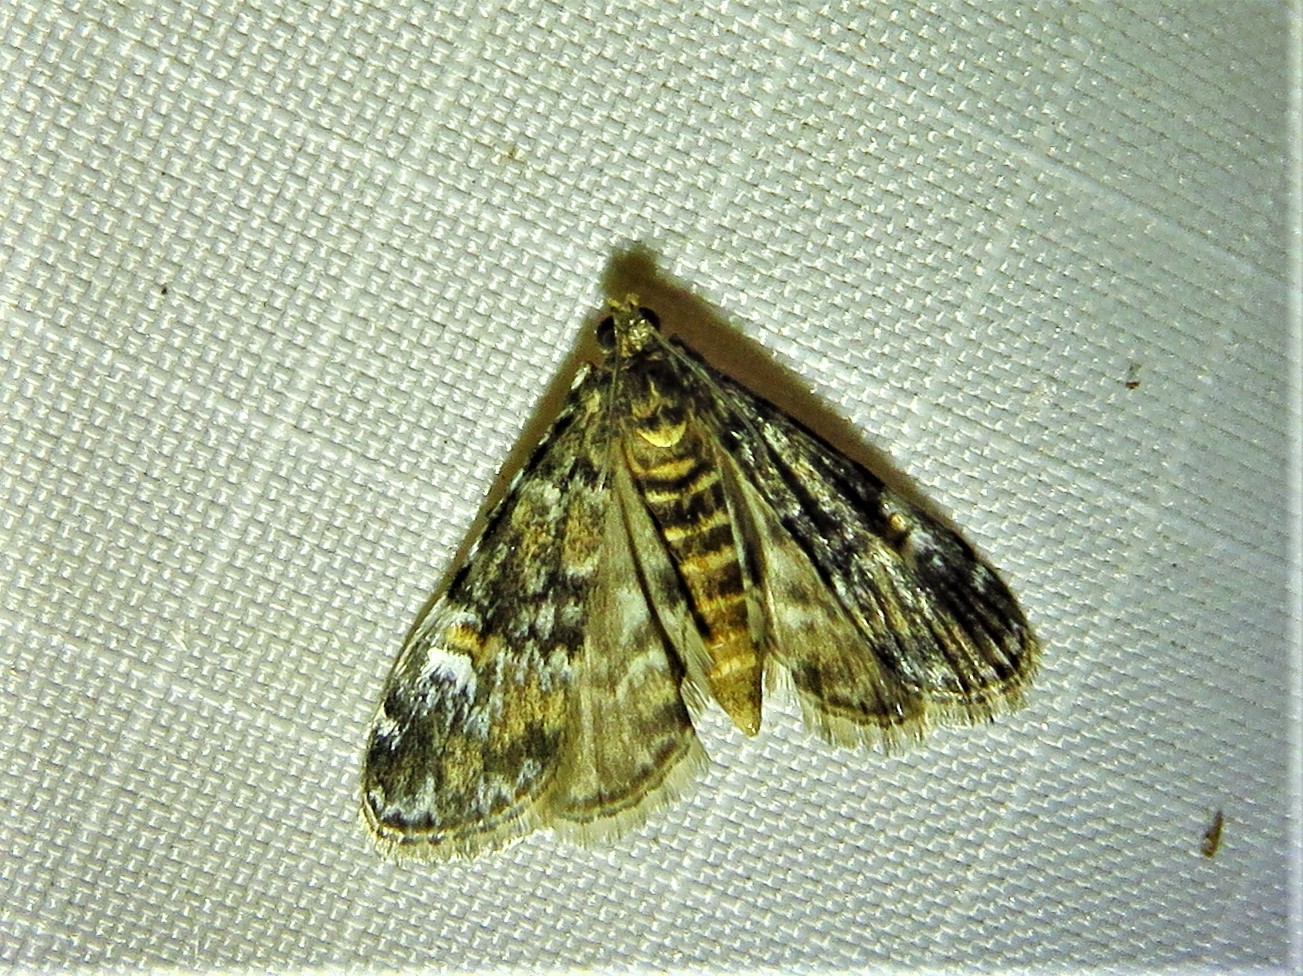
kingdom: Animalia
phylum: Arthropoda
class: Insecta
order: Lepidoptera
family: Crambidae
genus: Elophila
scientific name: Elophila obliteralis
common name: Waterlily leafcutter moth
